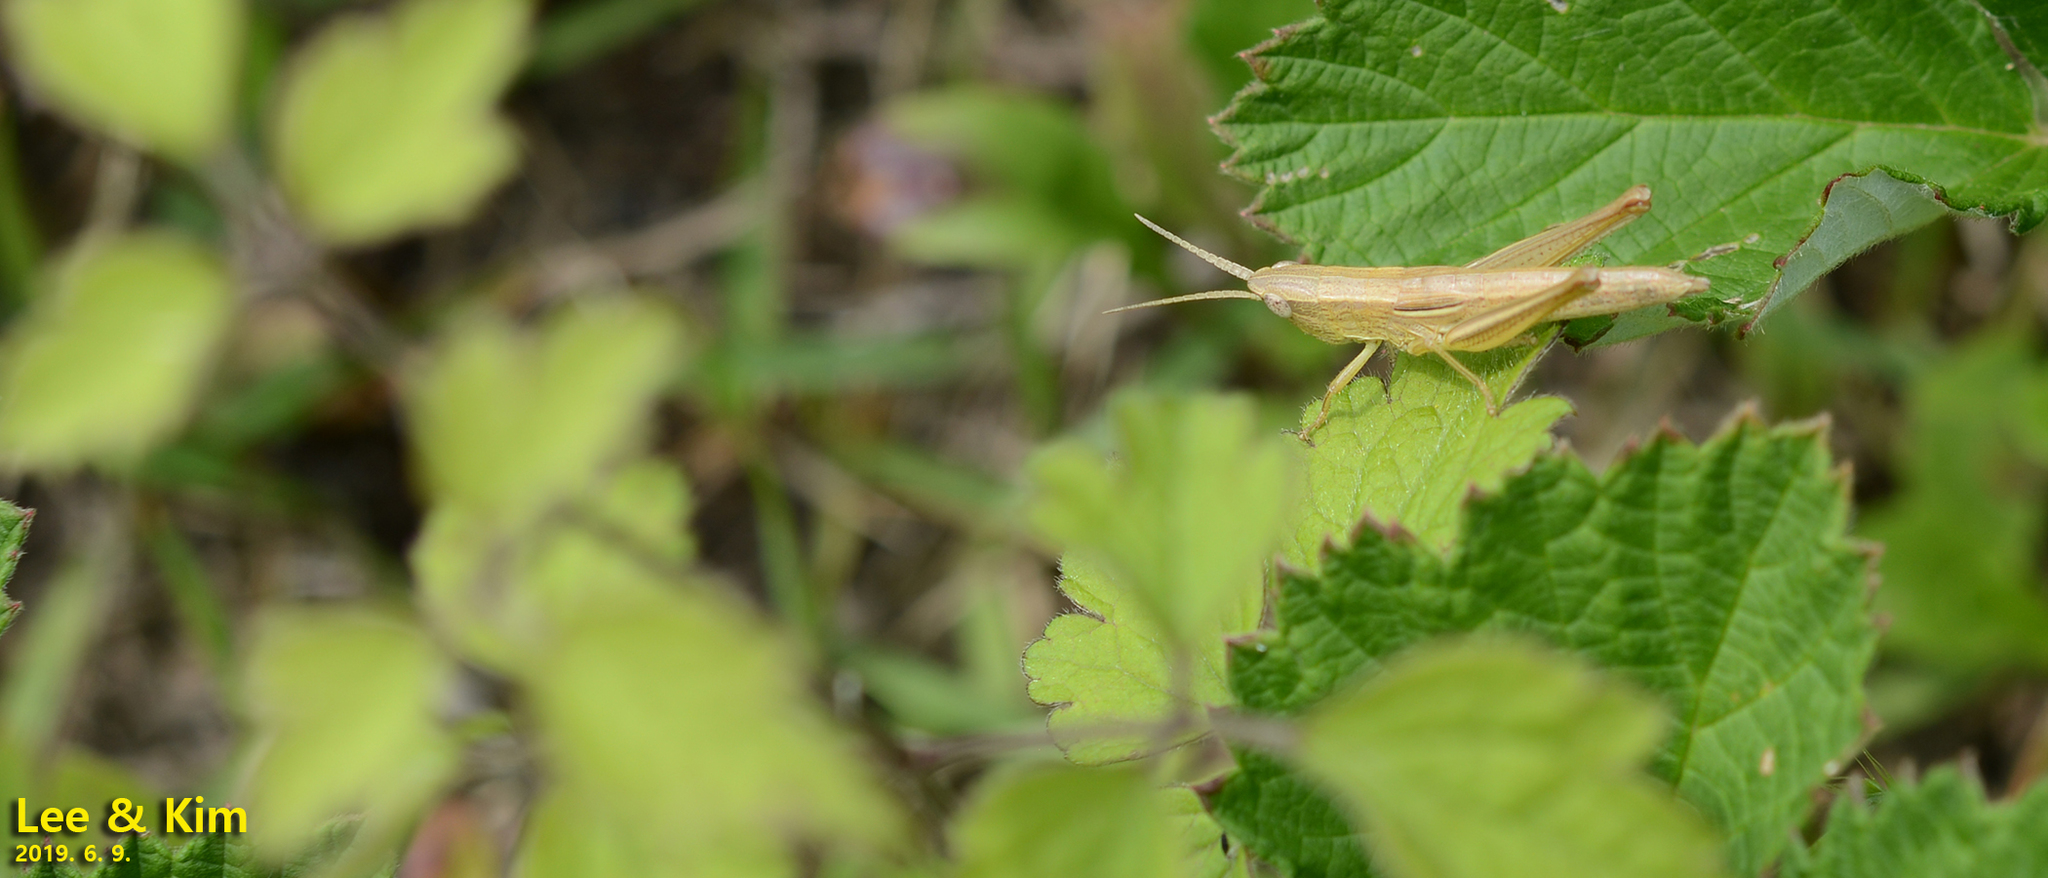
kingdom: Animalia
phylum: Arthropoda
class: Insecta
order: Orthoptera
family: Acrididae
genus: Mongolotettix
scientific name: Mongolotettix japonicus
